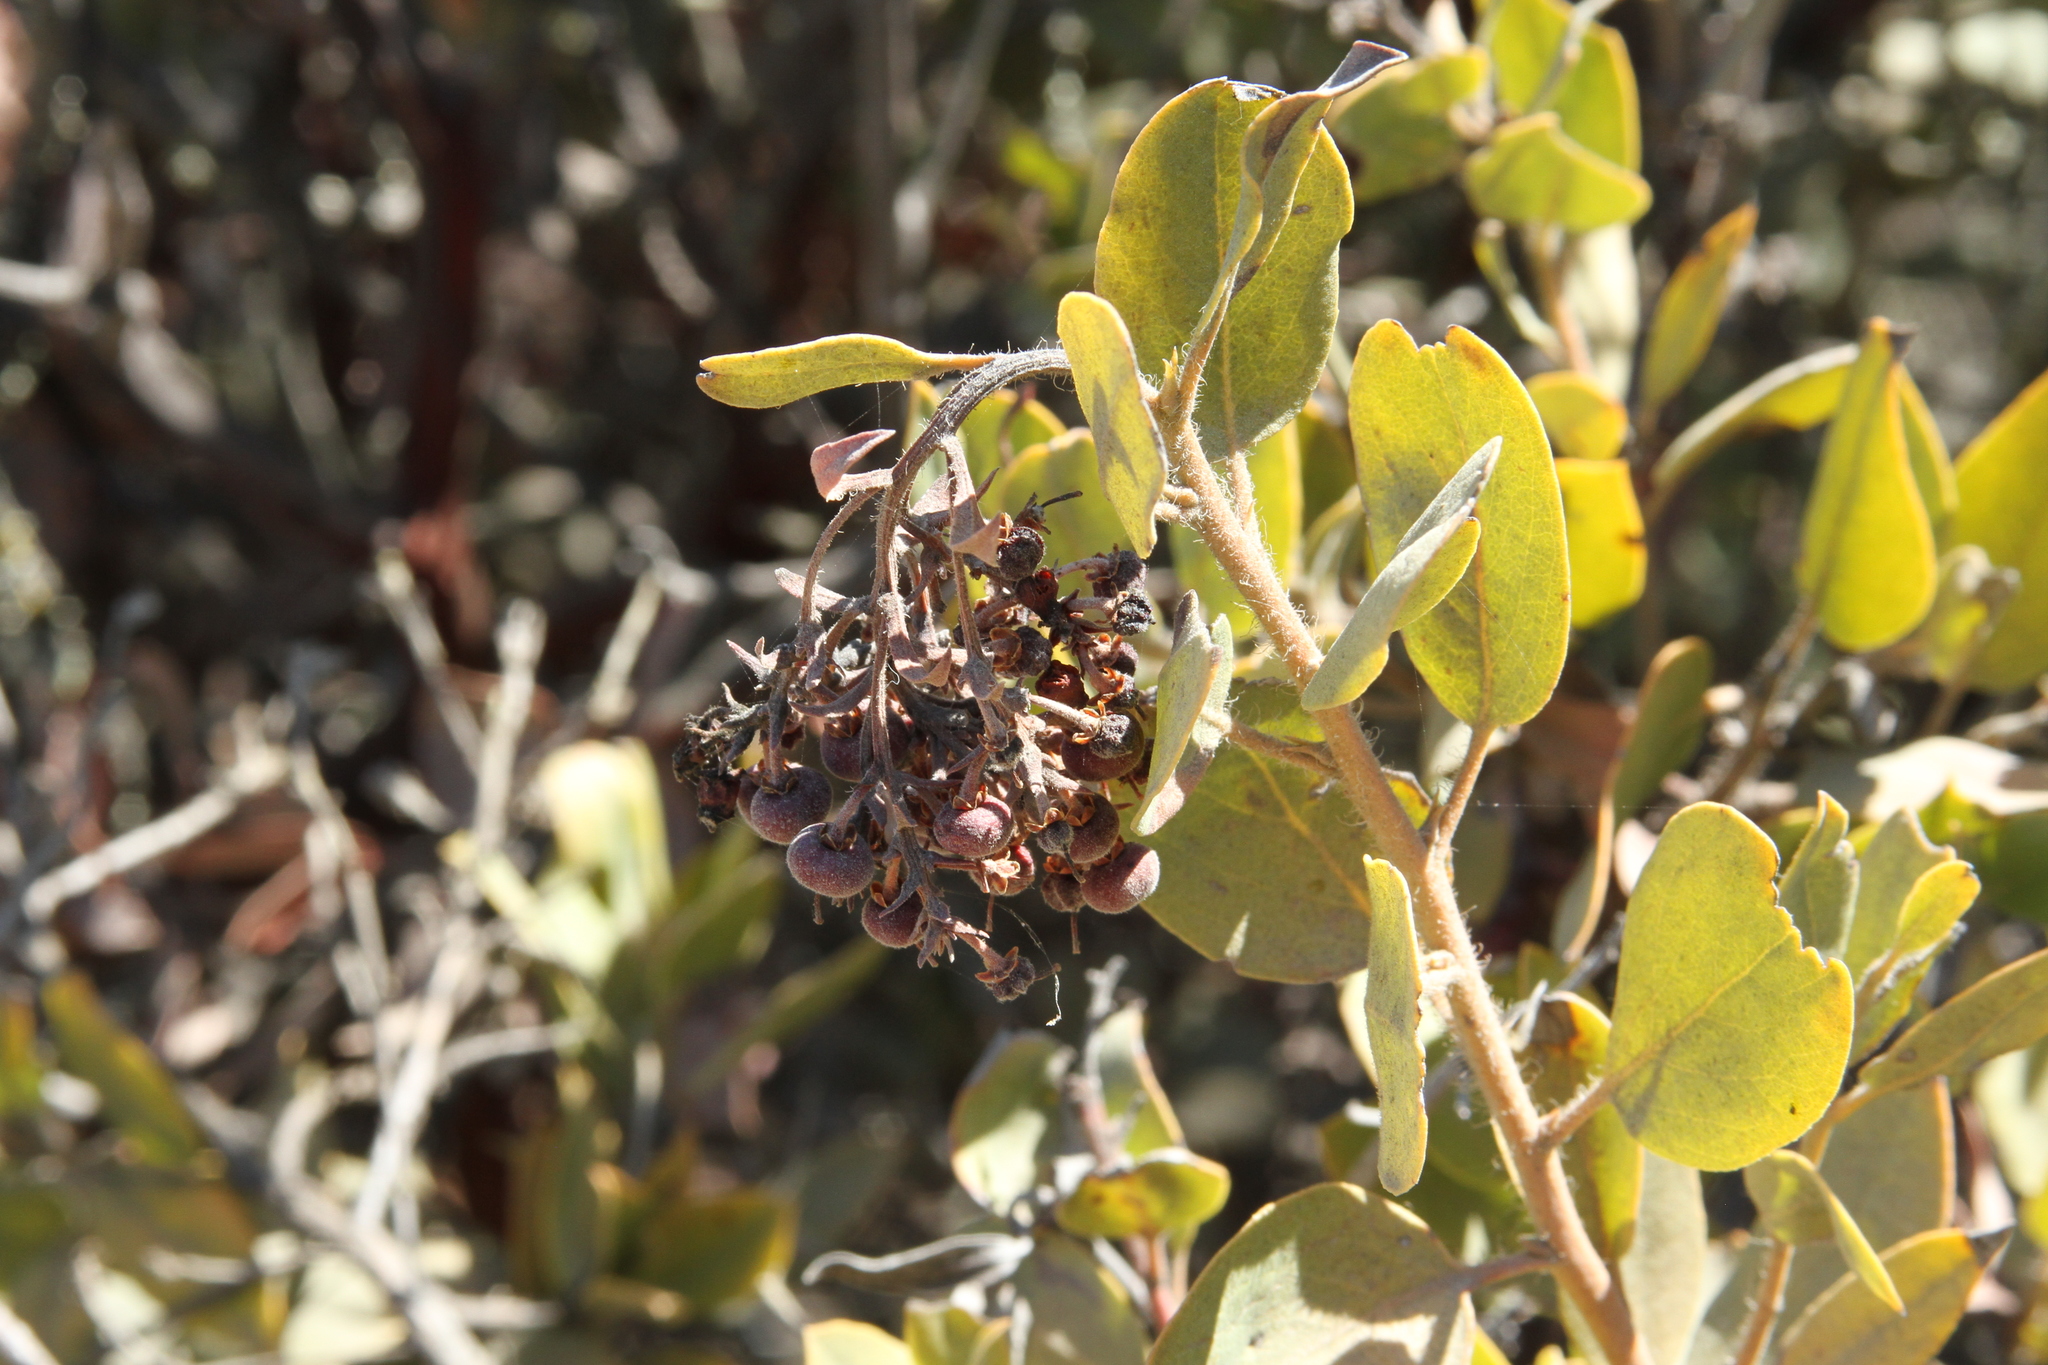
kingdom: Plantae
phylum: Tracheophyta
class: Magnoliopsida
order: Ericales
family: Ericaceae
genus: Arctostaphylos
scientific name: Arctostaphylos crustacea
